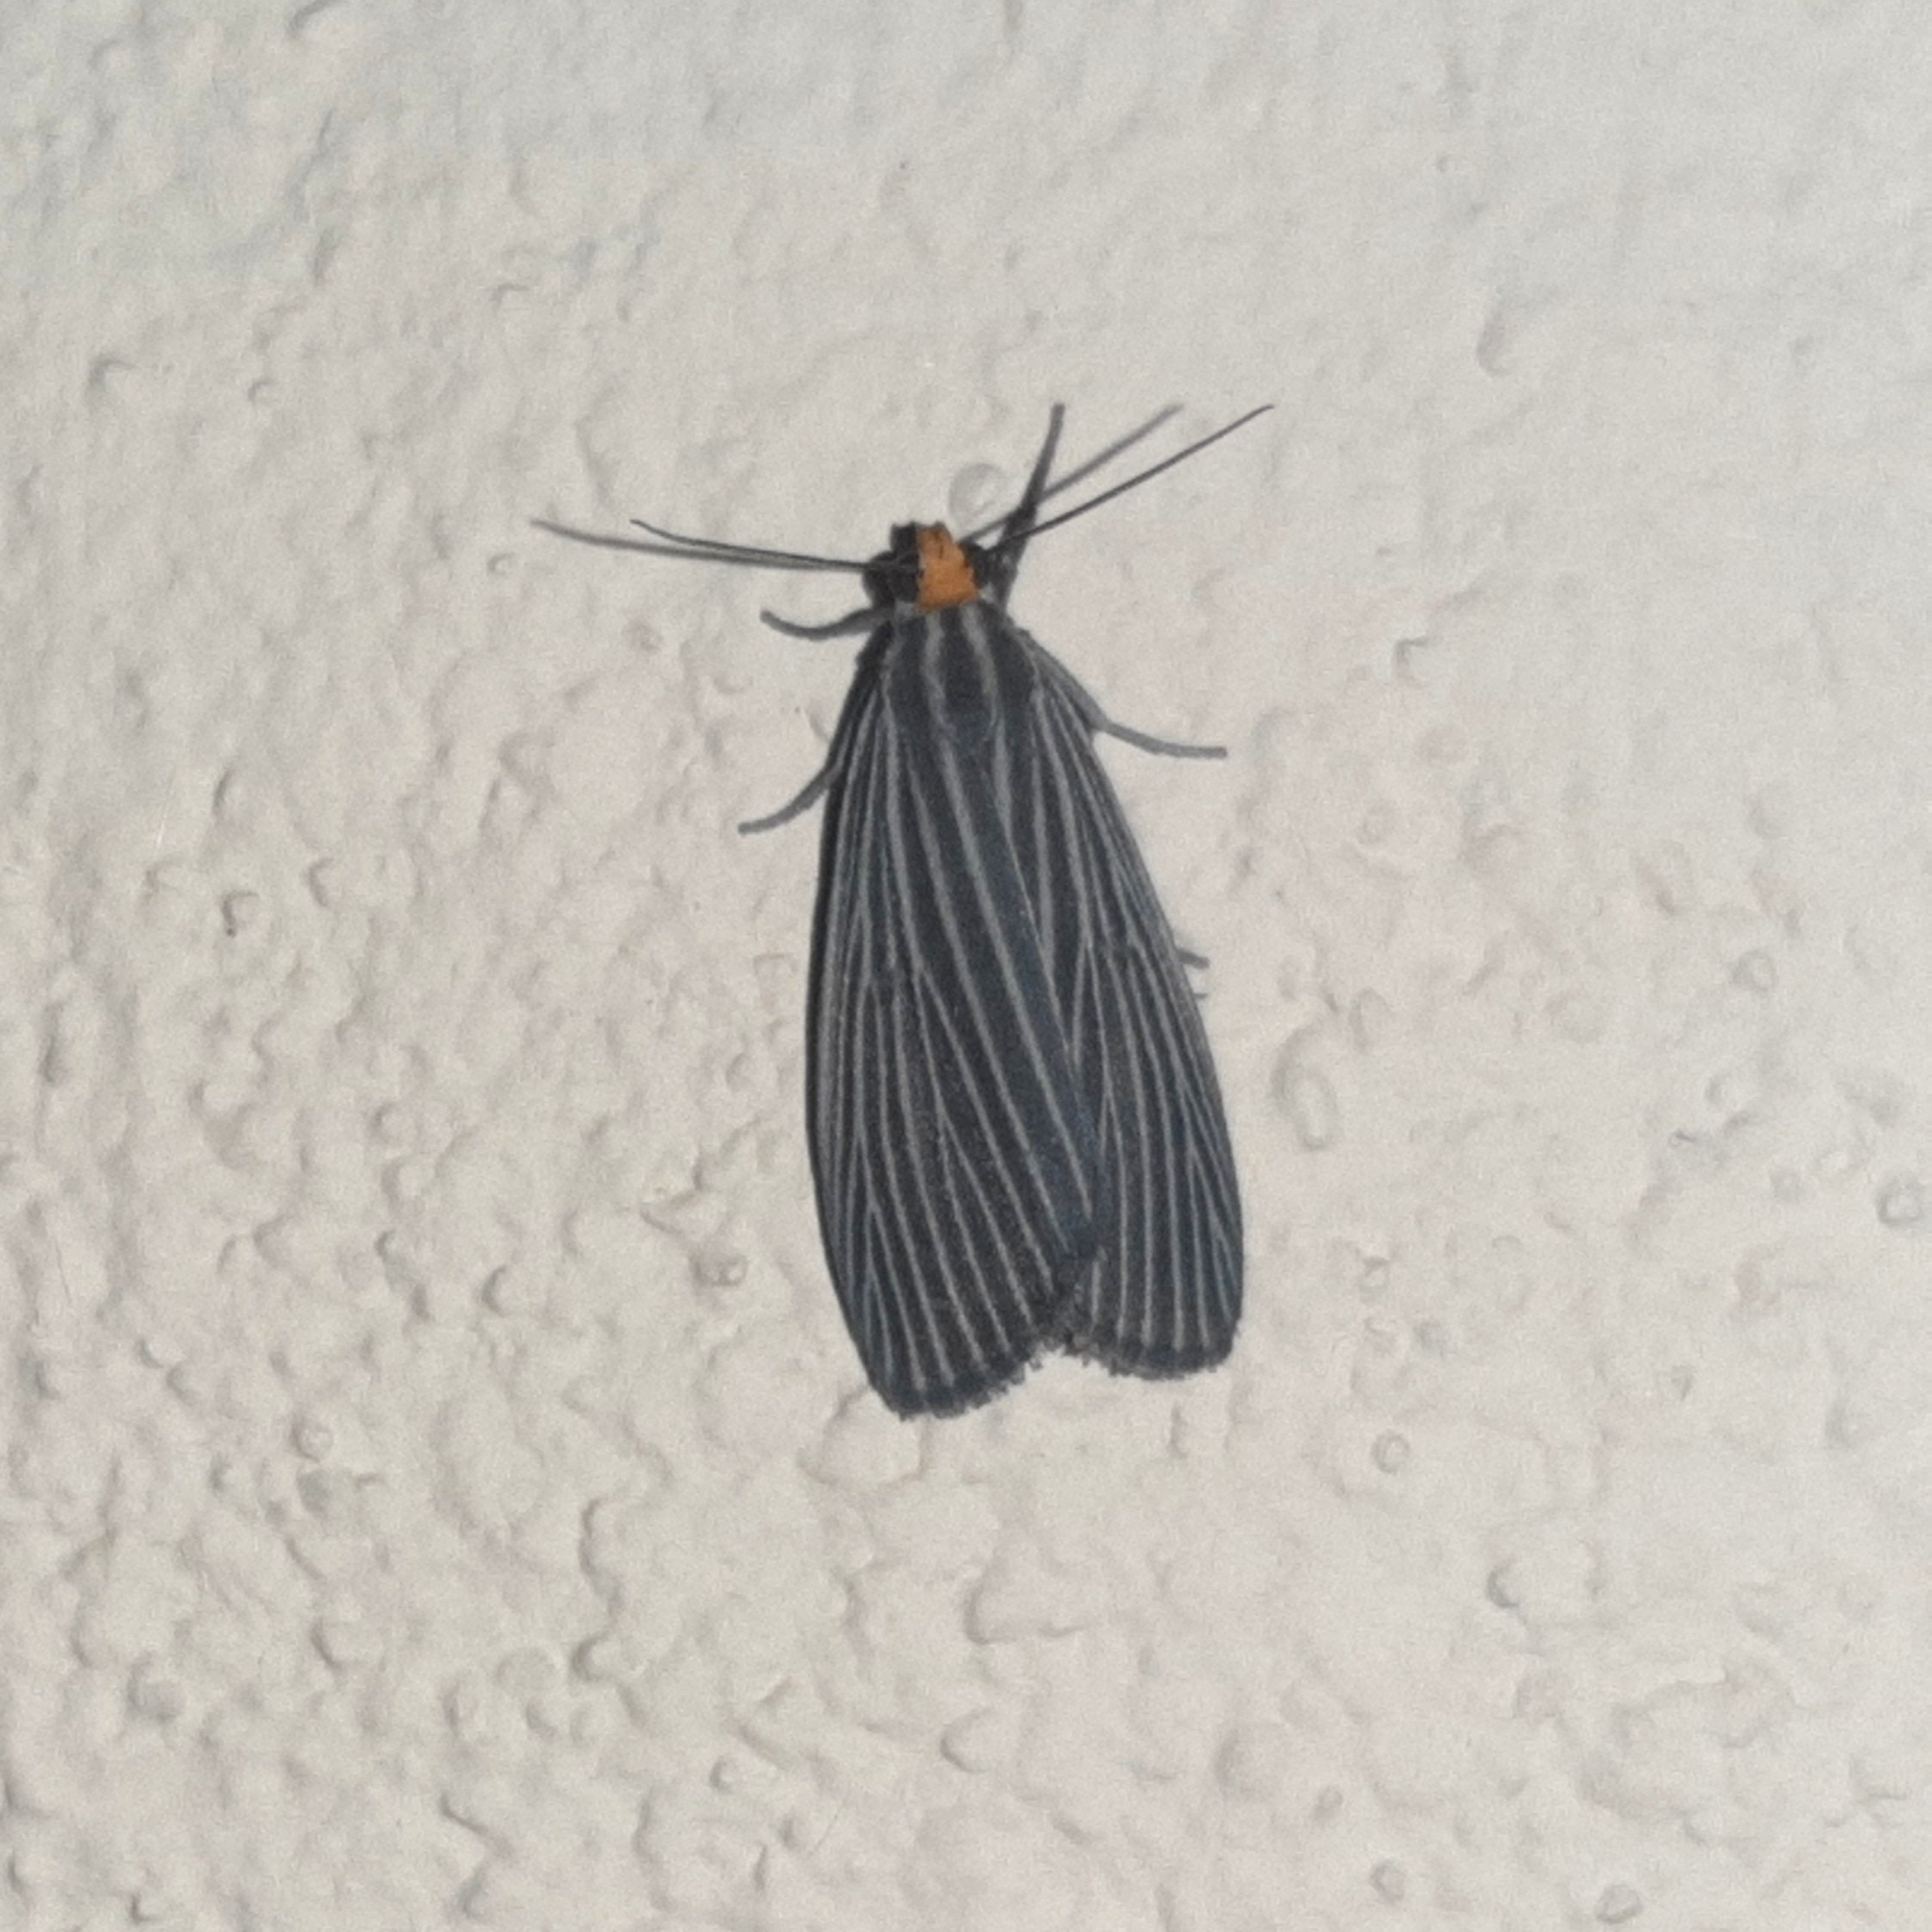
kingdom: Animalia
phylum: Arthropoda
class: Insecta
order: Lepidoptera
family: Notodontidae
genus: Scotura
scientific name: Scotura leucophleps
